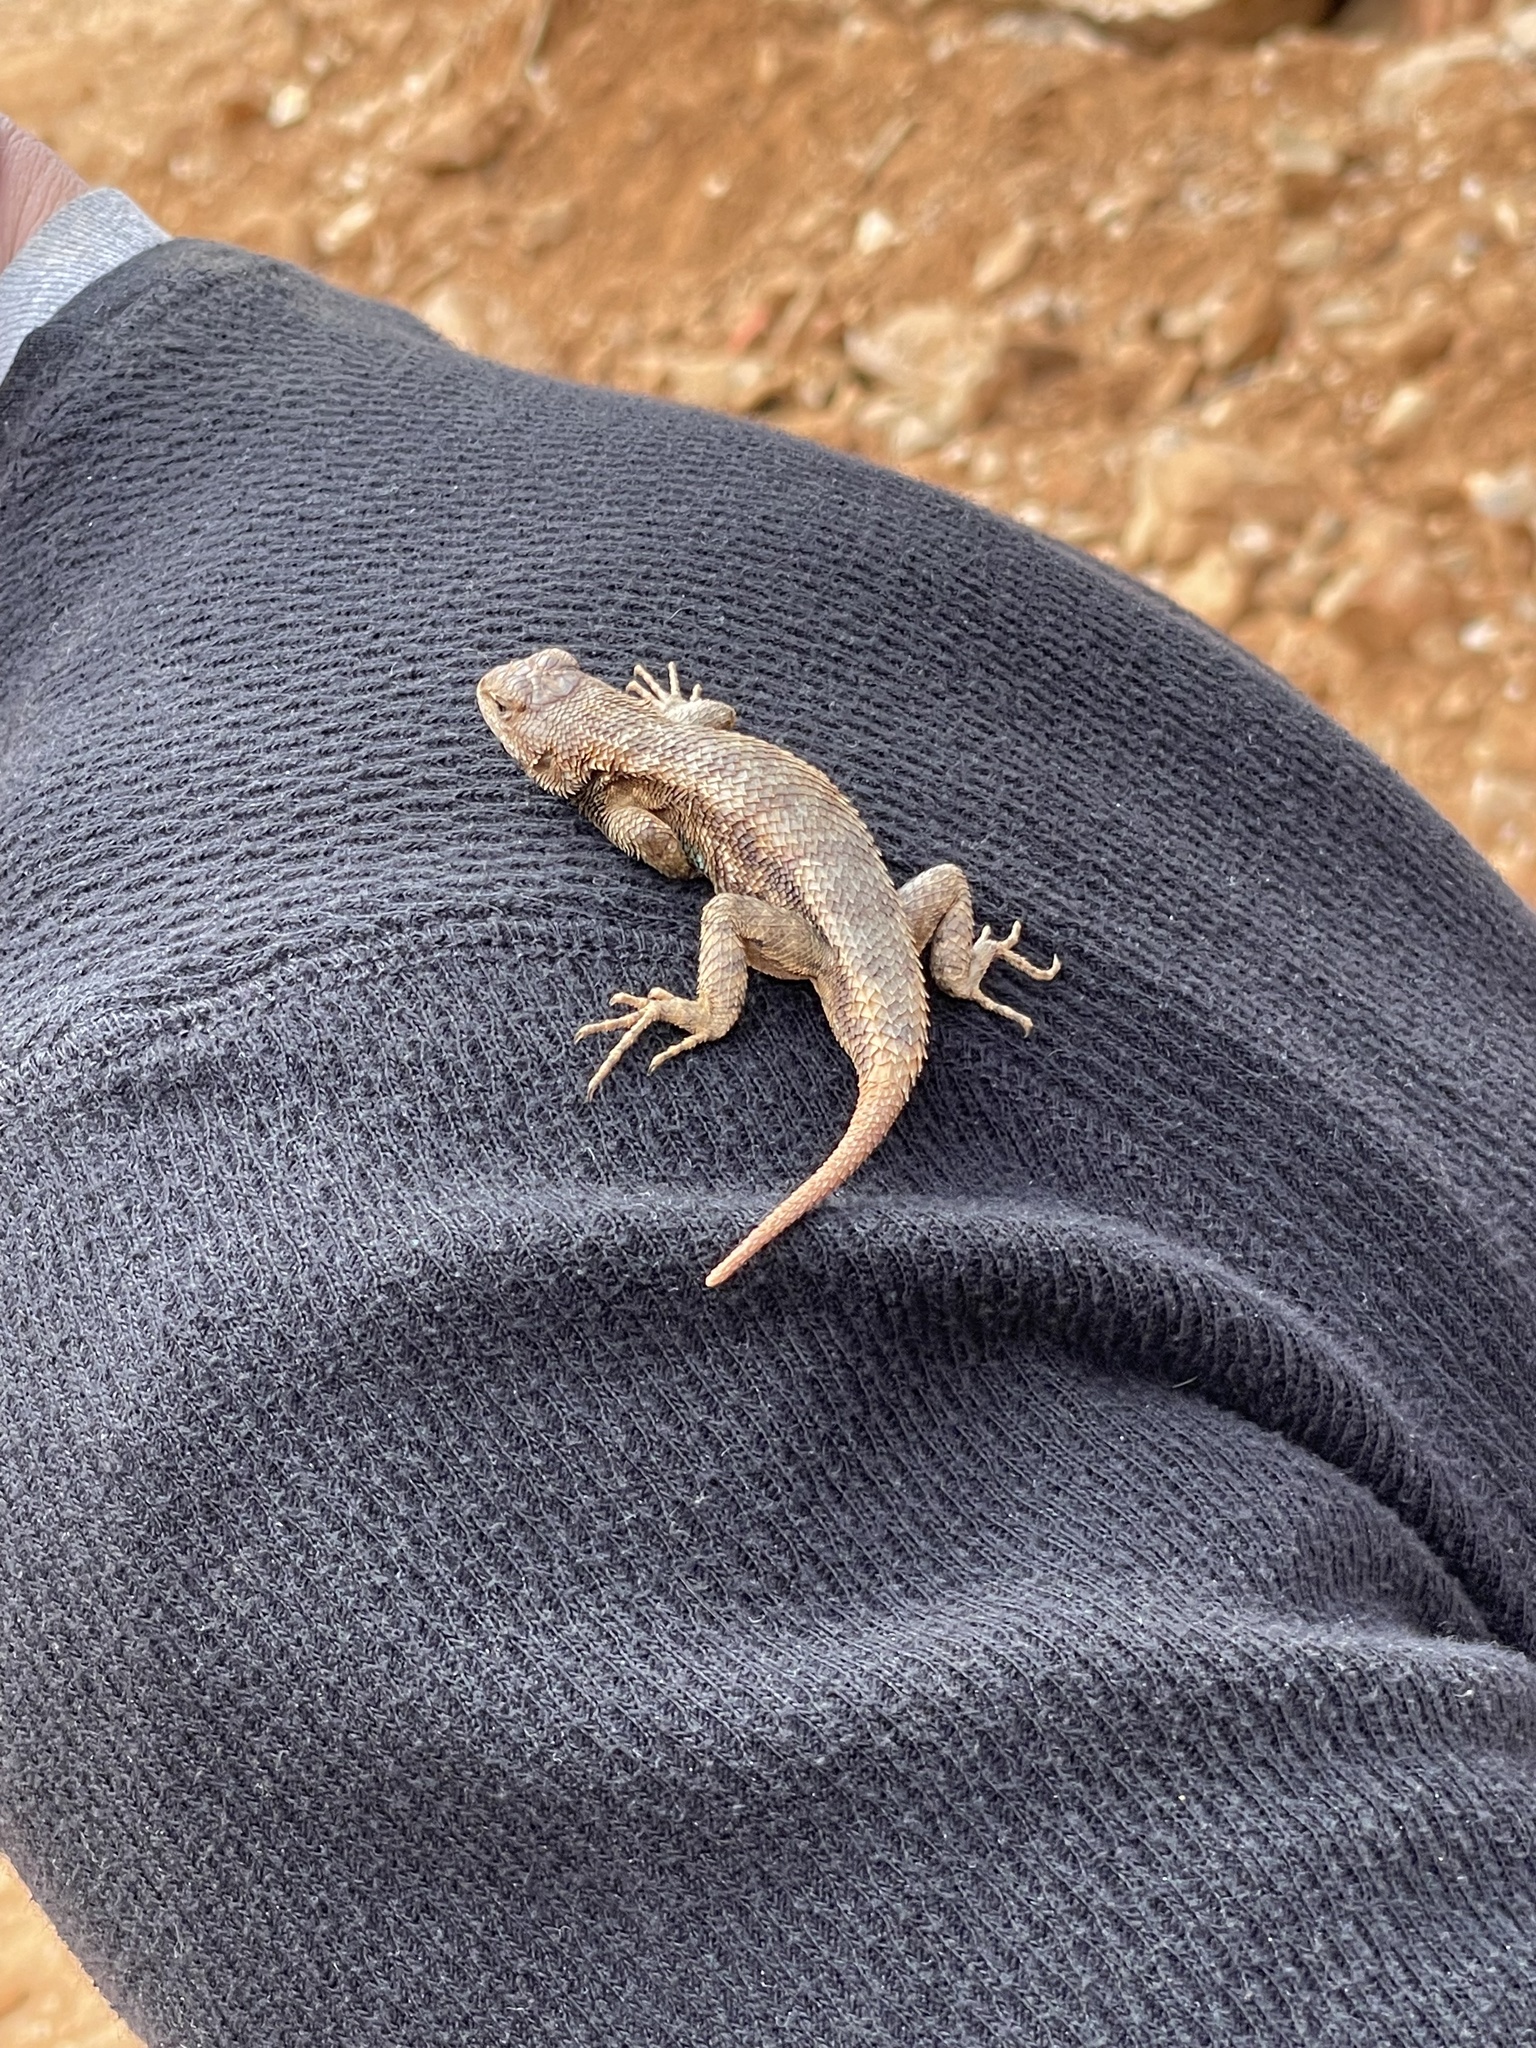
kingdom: Animalia
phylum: Chordata
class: Squamata
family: Phrynosomatidae
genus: Sceloporus
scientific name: Sceloporus consobrinus
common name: Southern prairie lizard
